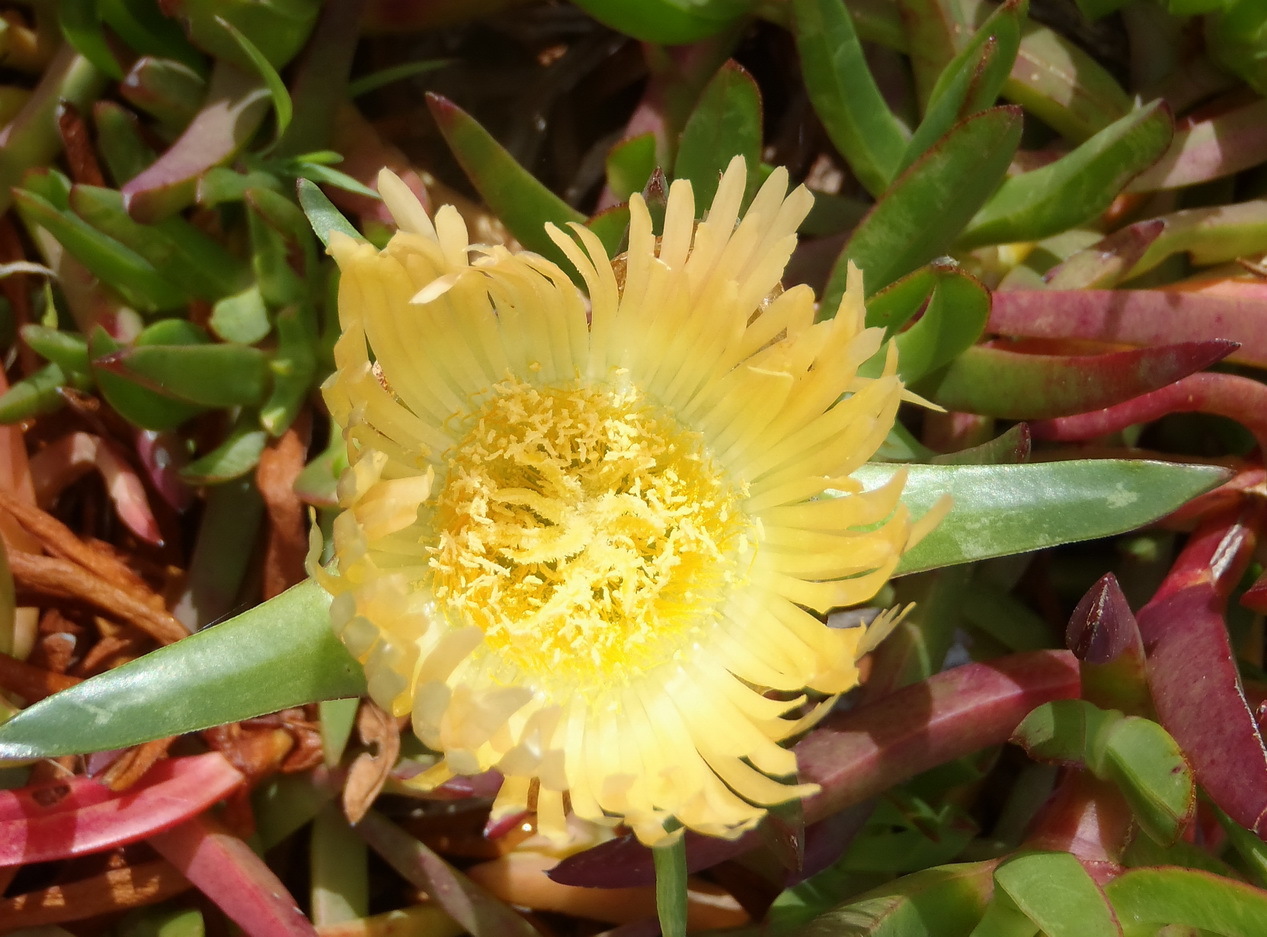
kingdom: Plantae
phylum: Tracheophyta
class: Magnoliopsida
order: Caryophyllales
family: Aizoaceae
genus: Carpobrotus
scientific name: Carpobrotus edulis
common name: Hottentot-fig
